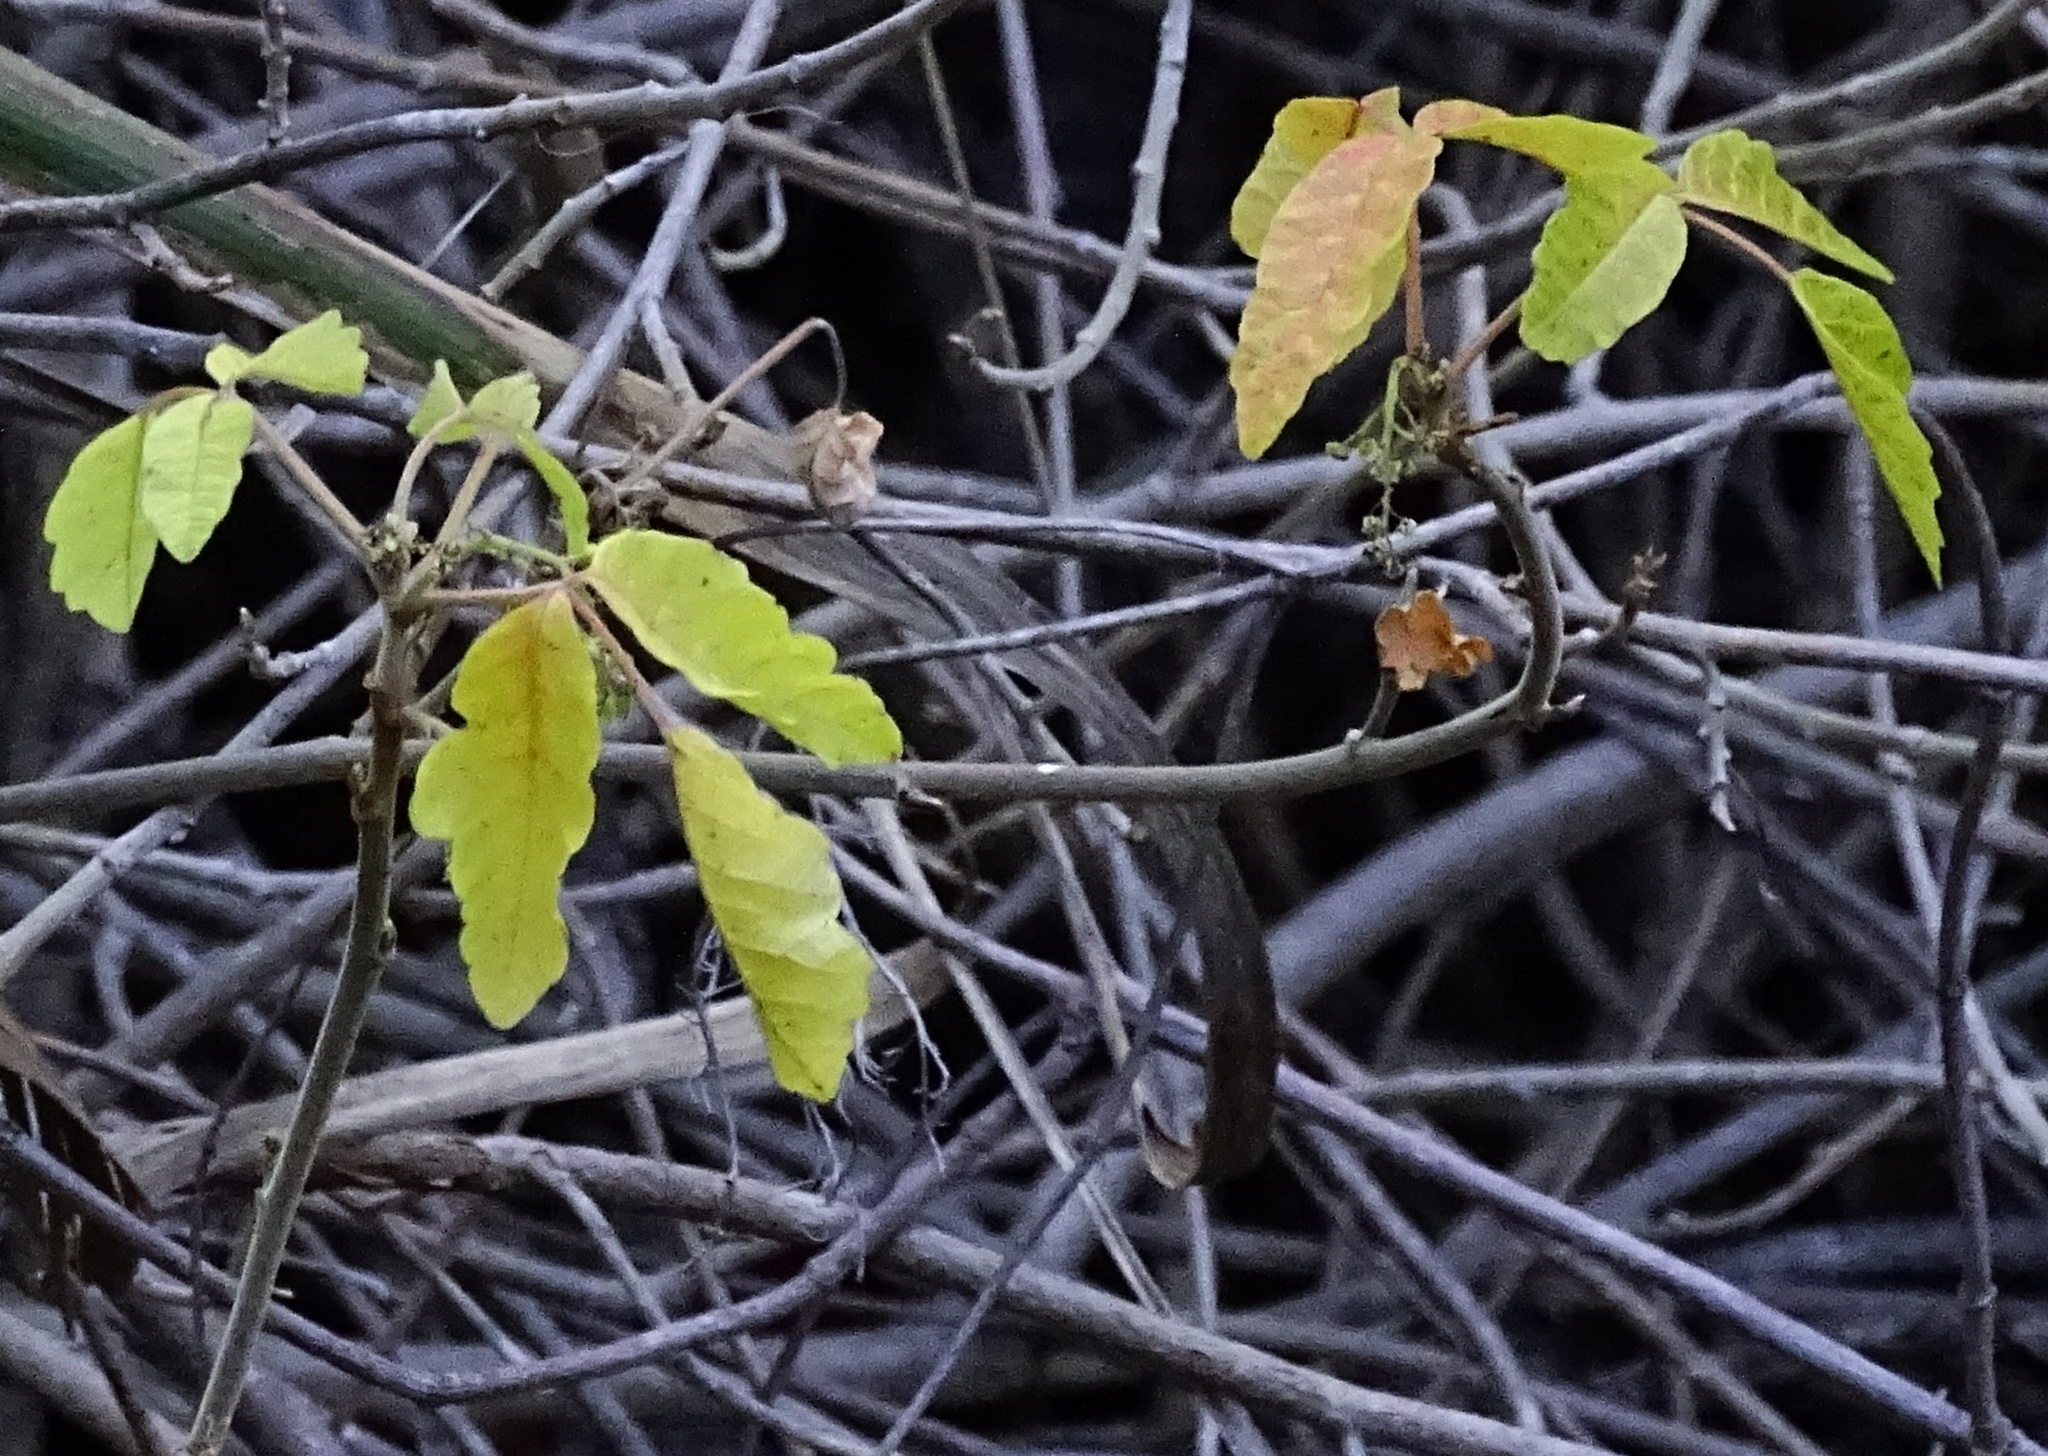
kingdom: Plantae
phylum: Tracheophyta
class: Magnoliopsida
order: Sapindales
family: Anacardiaceae
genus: Toxicodendron
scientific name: Toxicodendron diversilobum
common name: Pacific poison-oak
